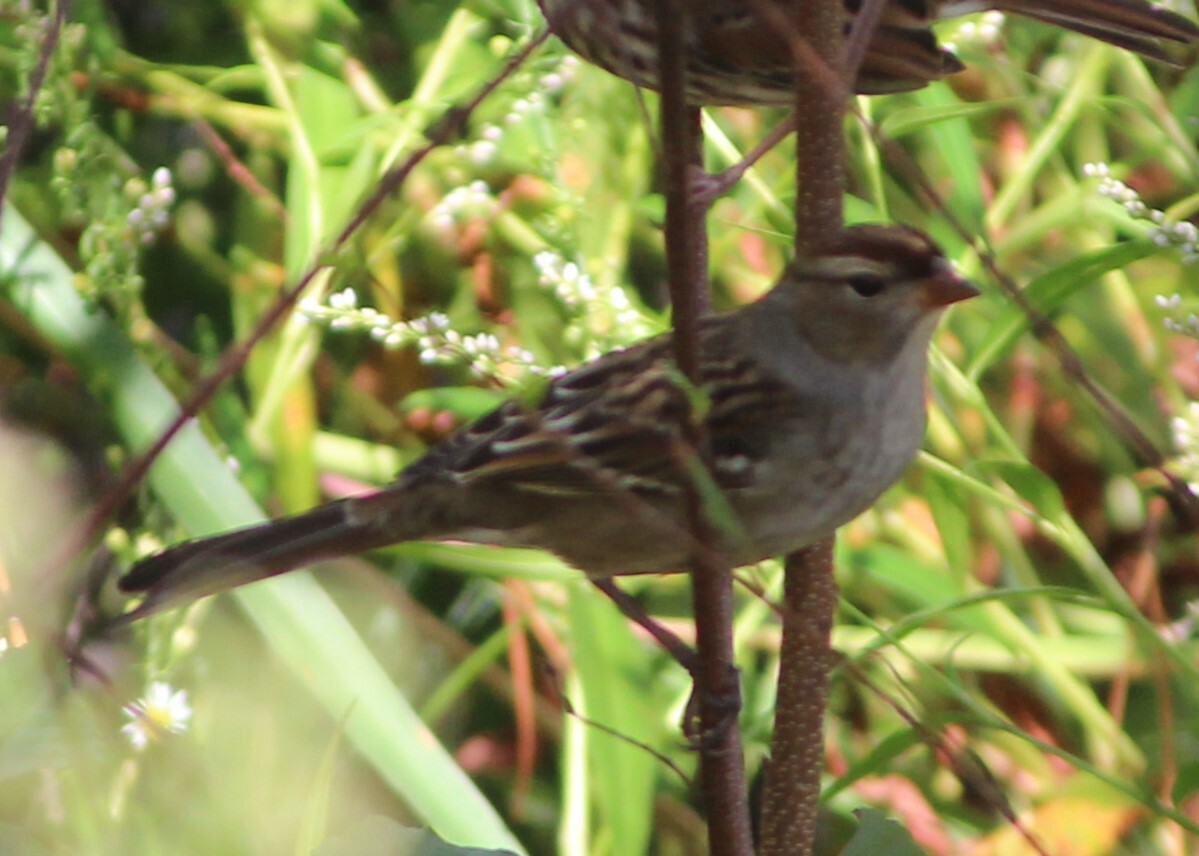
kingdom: Animalia
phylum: Chordata
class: Aves
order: Passeriformes
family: Passerellidae
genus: Zonotrichia
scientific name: Zonotrichia leucophrys
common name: White-crowned sparrow
